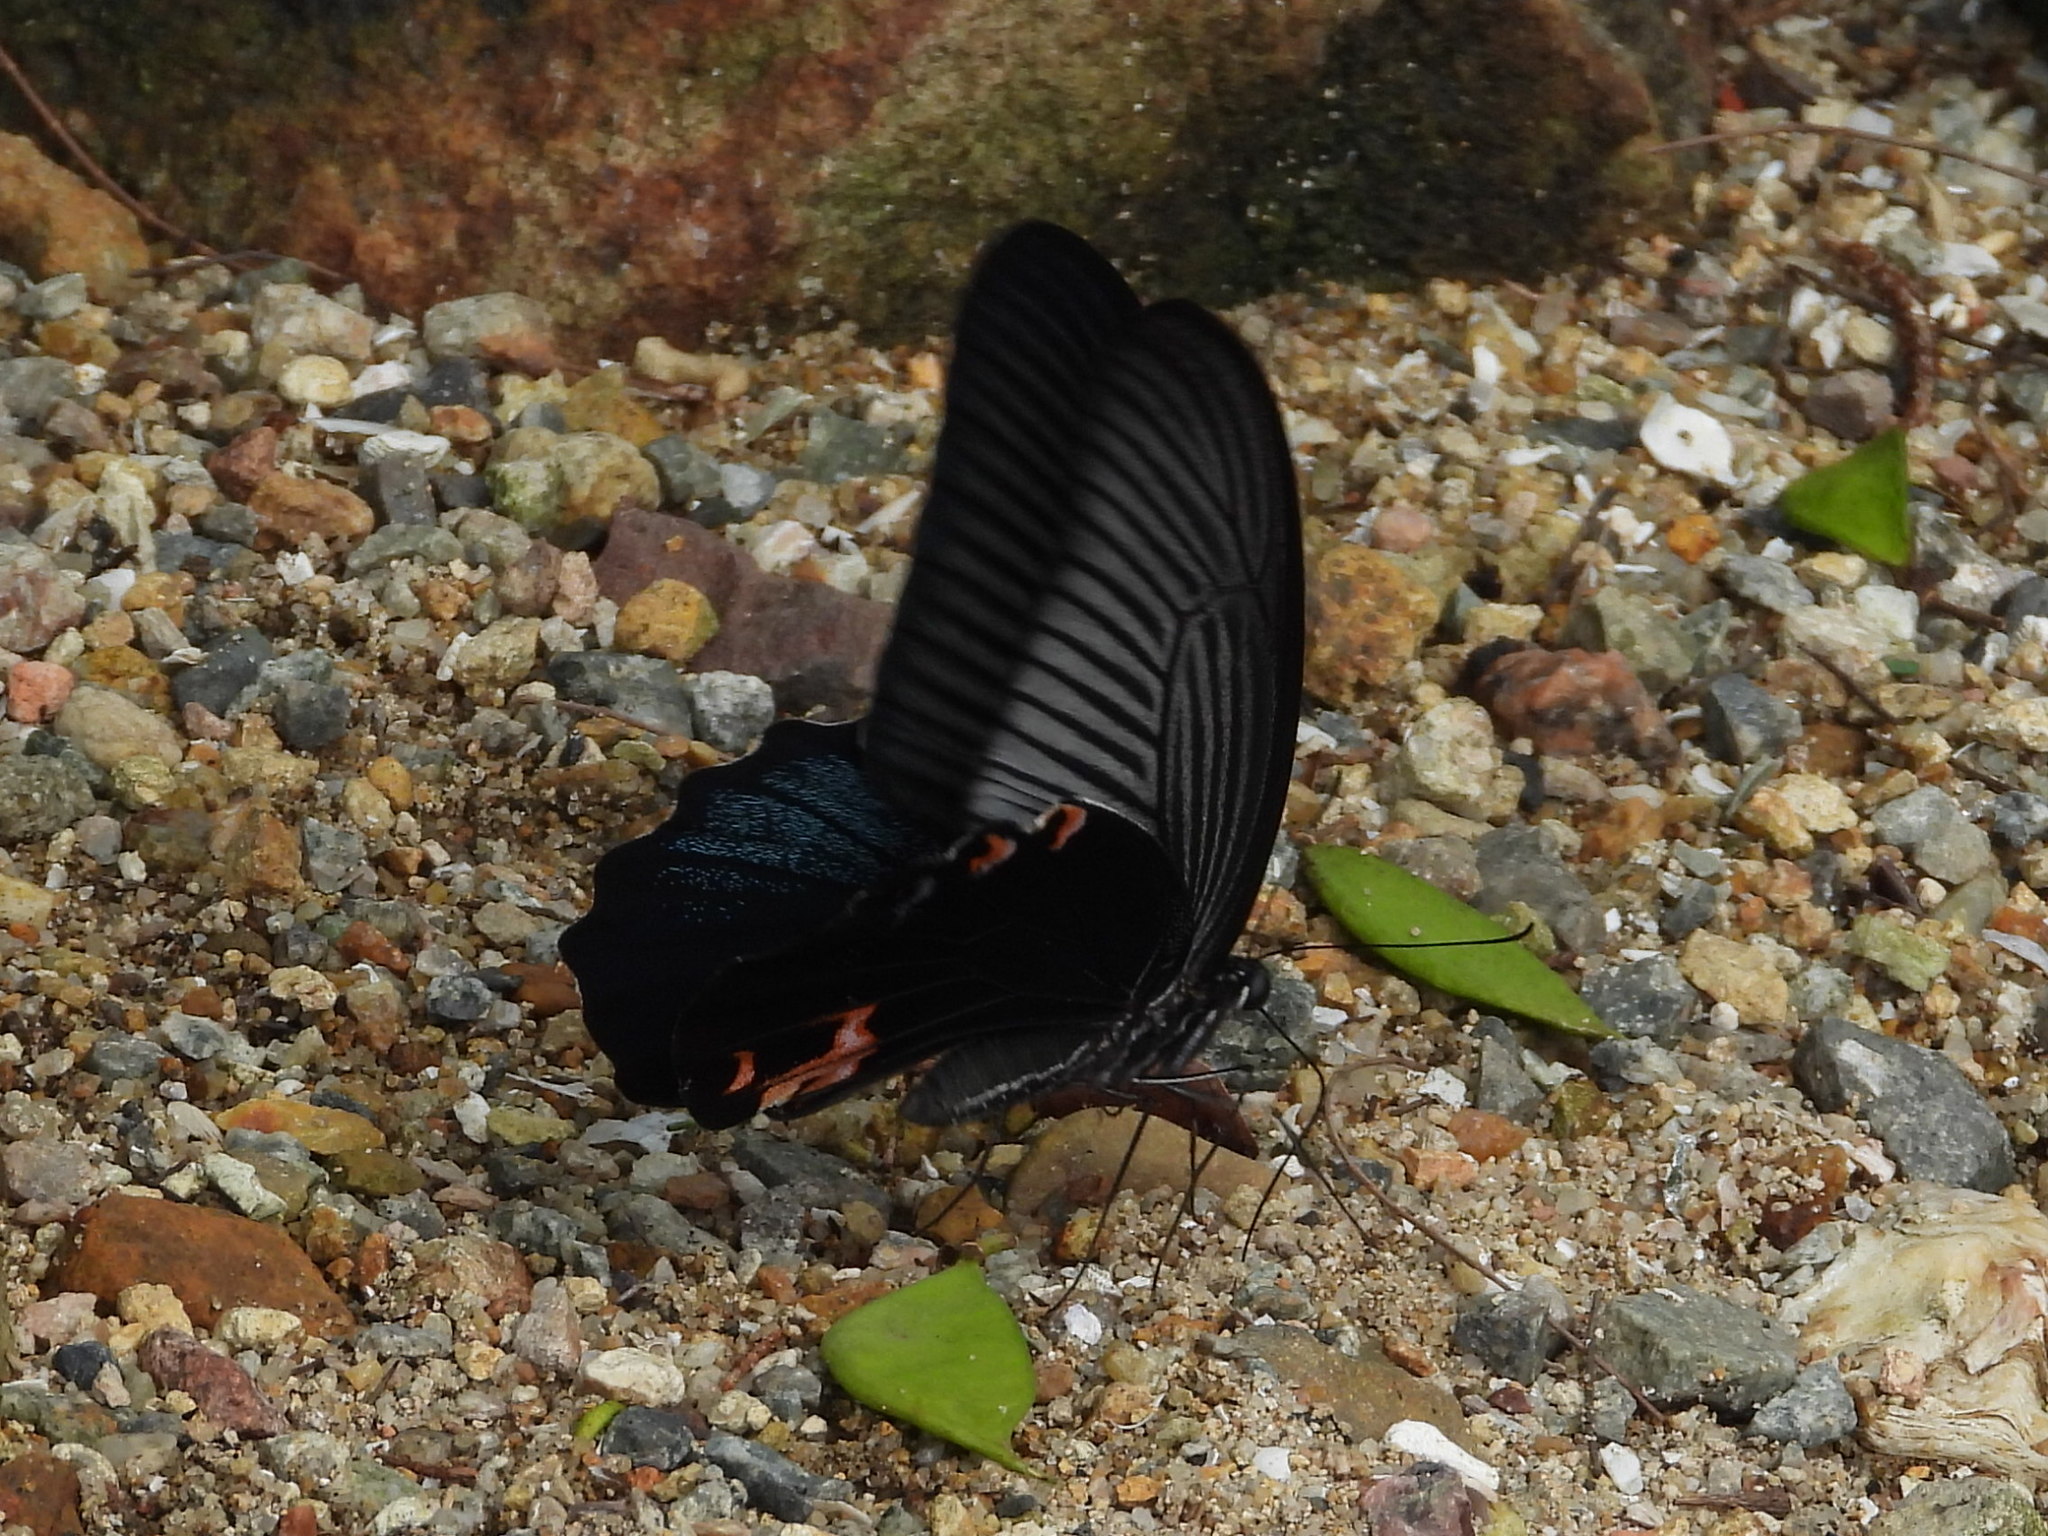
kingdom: Animalia
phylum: Arthropoda
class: Insecta
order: Lepidoptera
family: Papilionidae
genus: Papilio
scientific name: Papilio protenor
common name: Spangle
